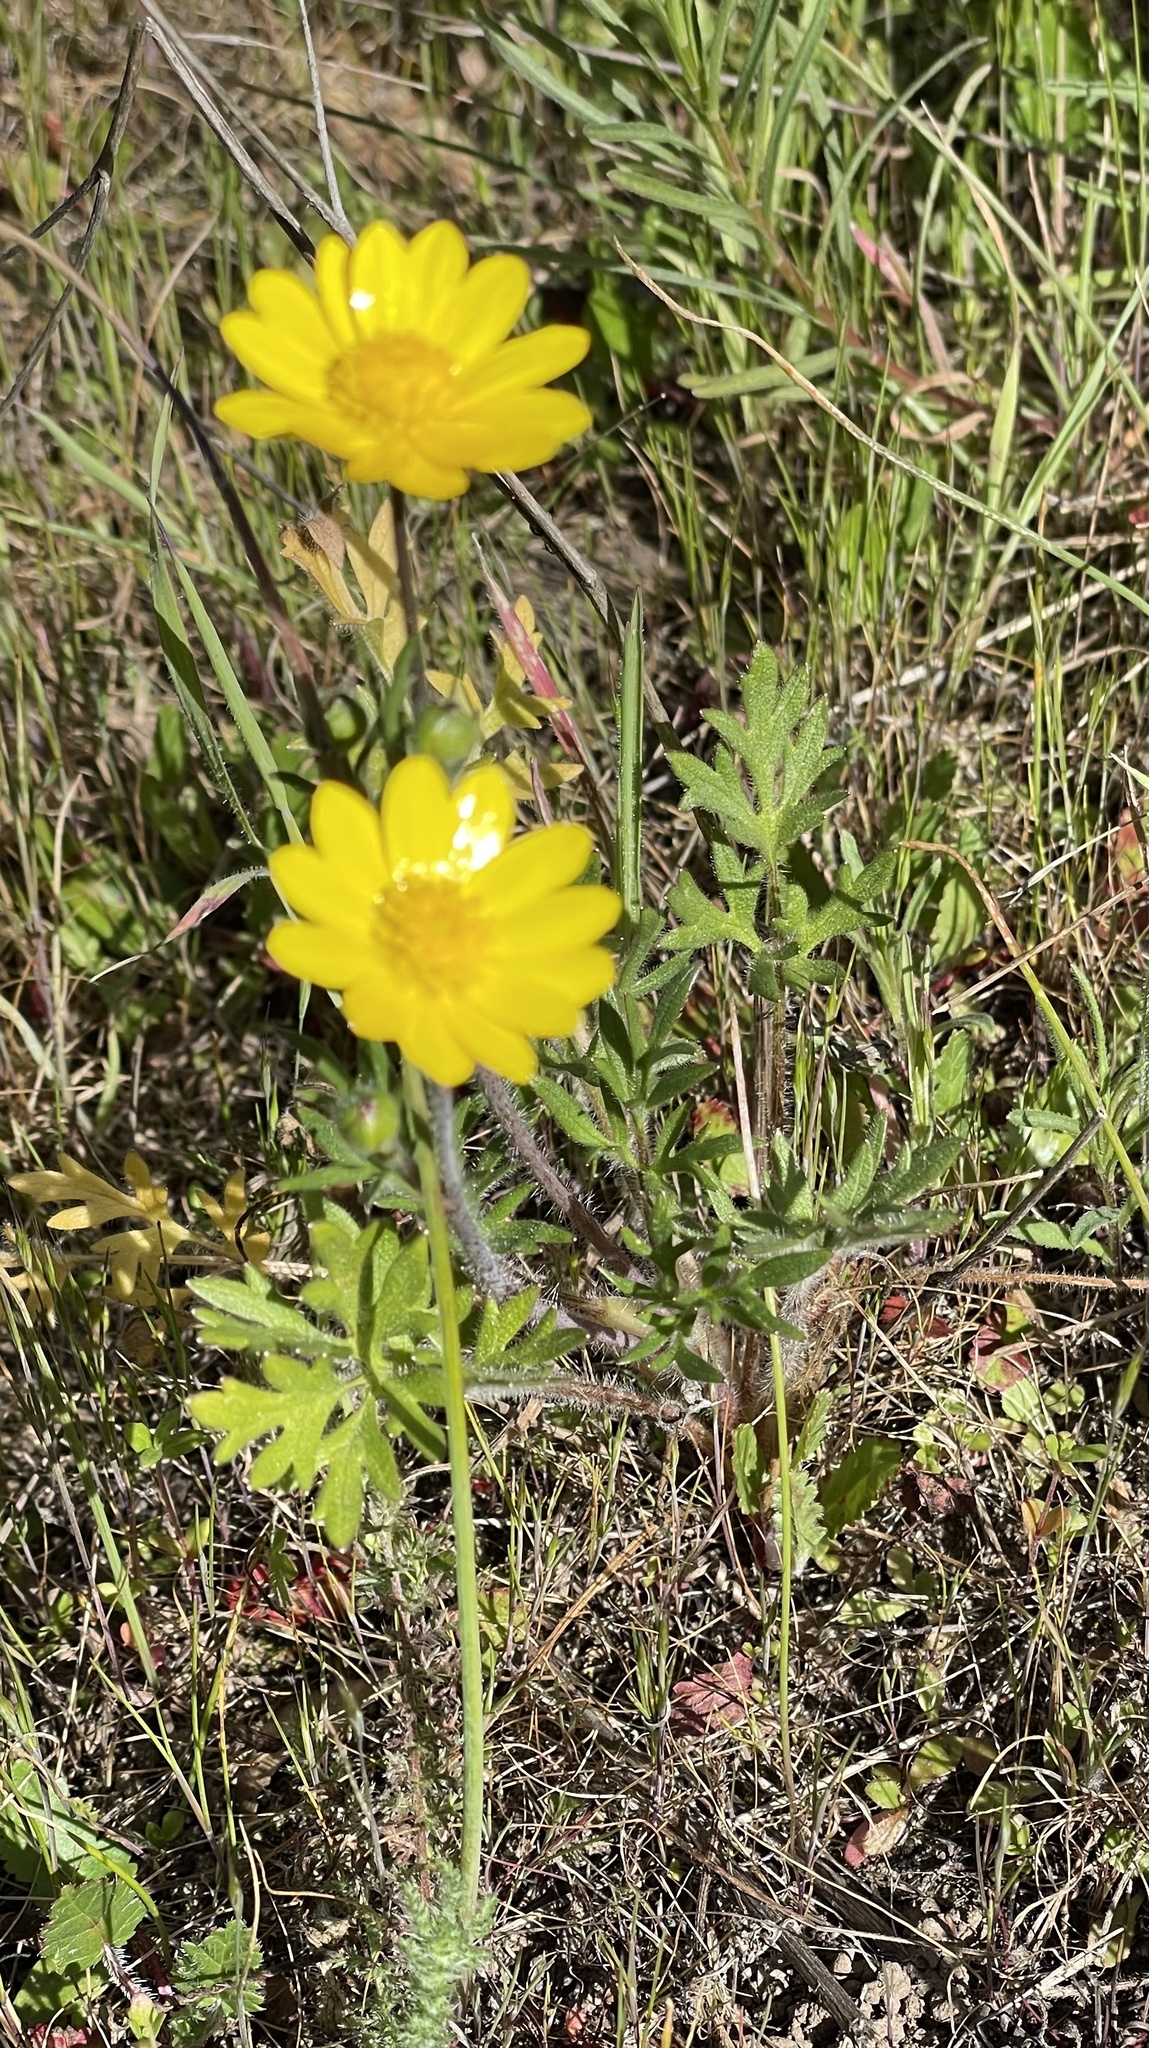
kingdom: Plantae
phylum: Tracheophyta
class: Magnoliopsida
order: Ranunculales
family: Ranunculaceae
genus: Ranunculus
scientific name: Ranunculus californicus
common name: California buttercup
